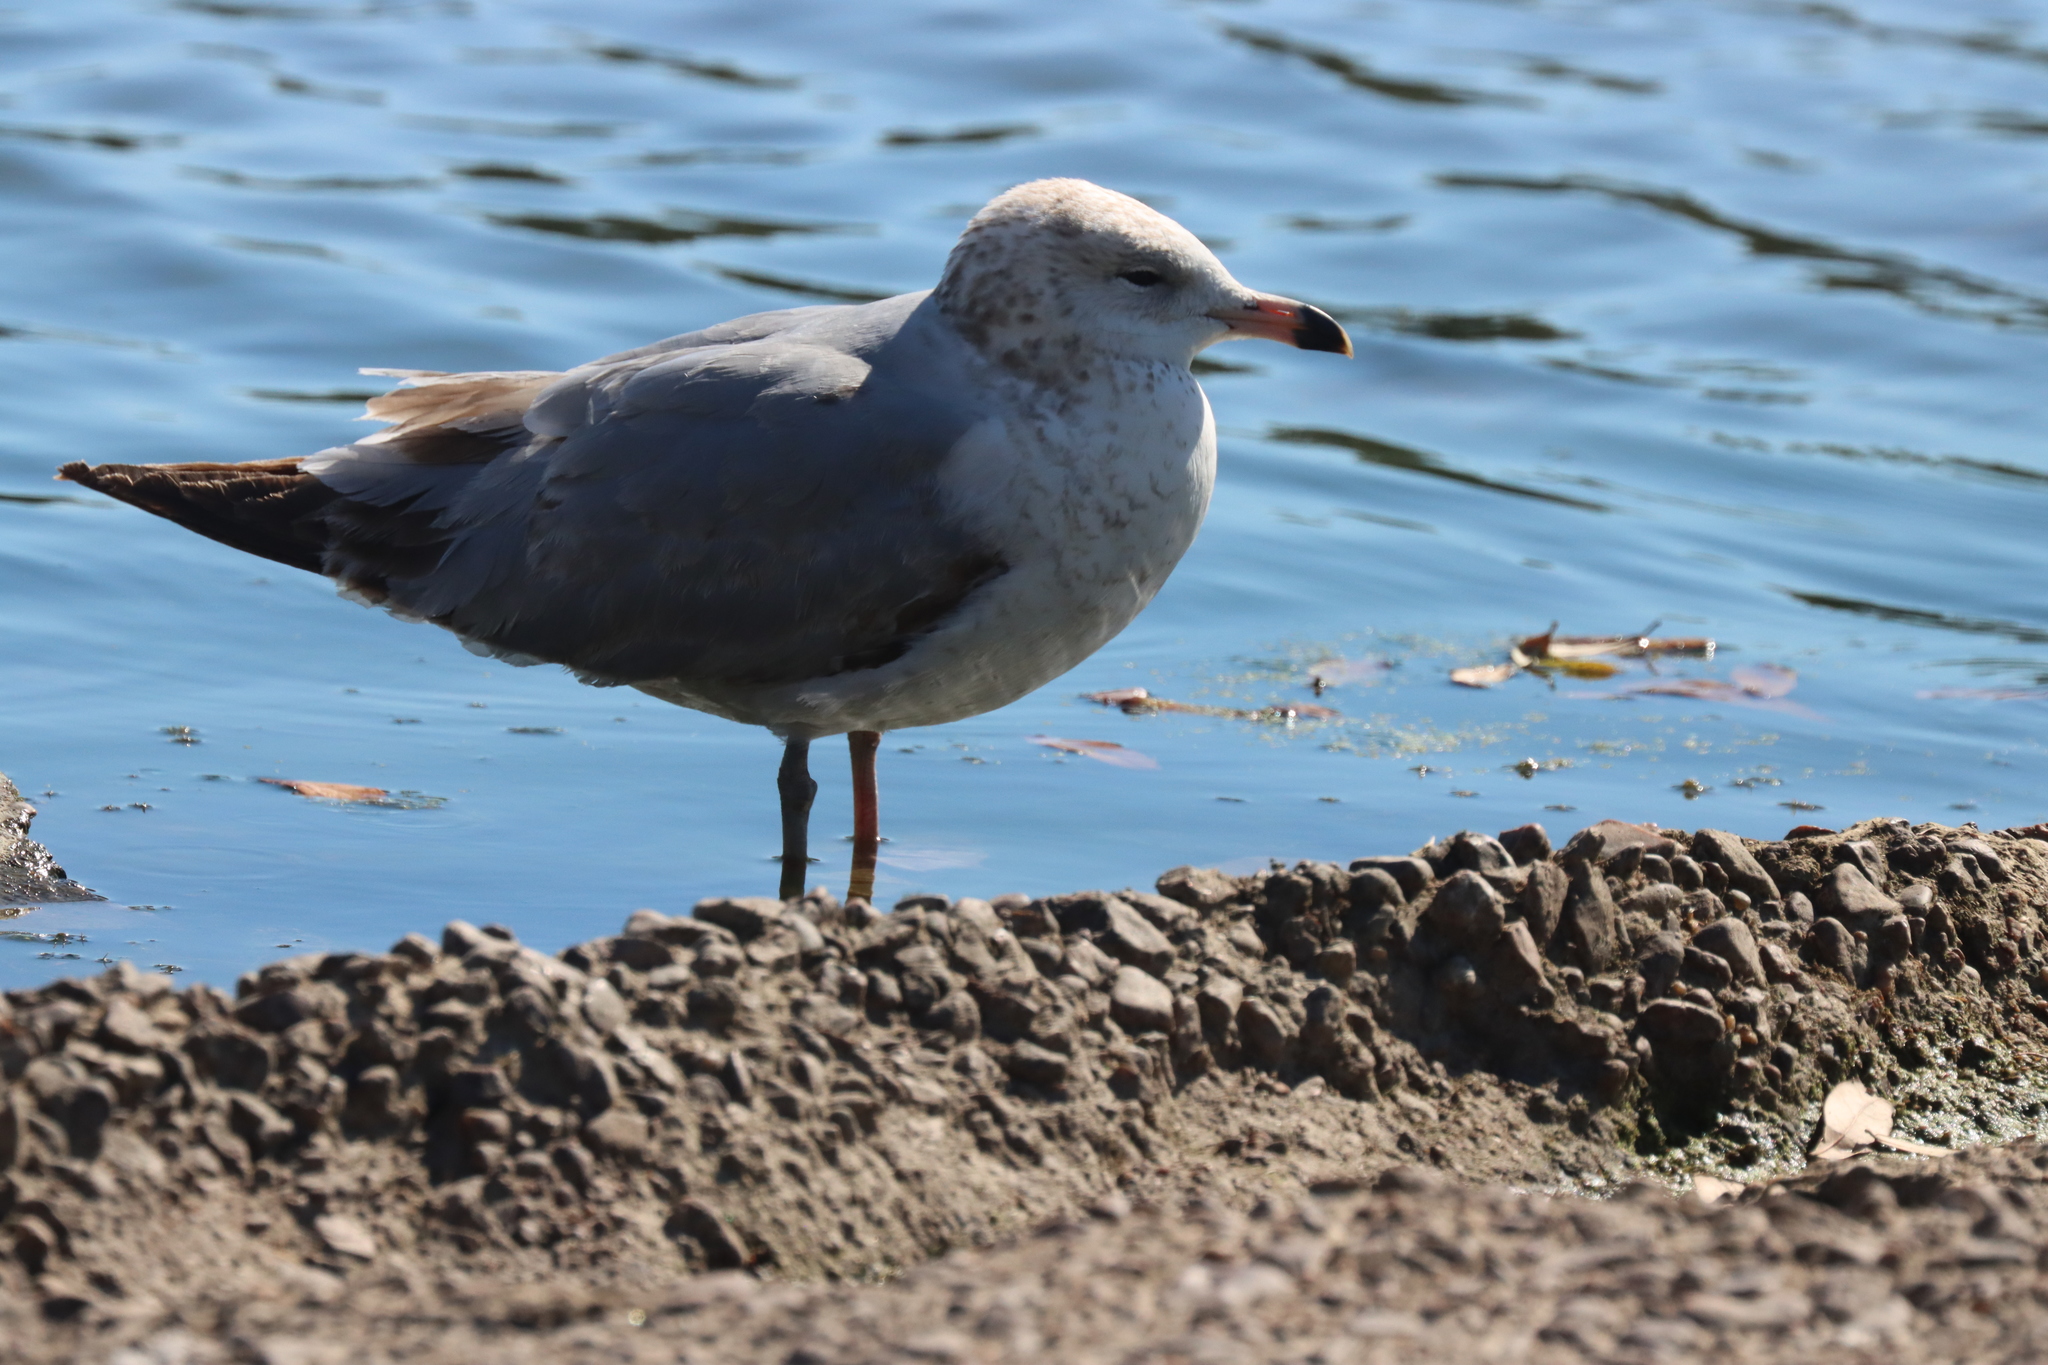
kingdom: Animalia
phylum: Chordata
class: Aves
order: Charadriiformes
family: Laridae
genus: Larus
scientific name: Larus delawarensis
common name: Ring-billed gull
